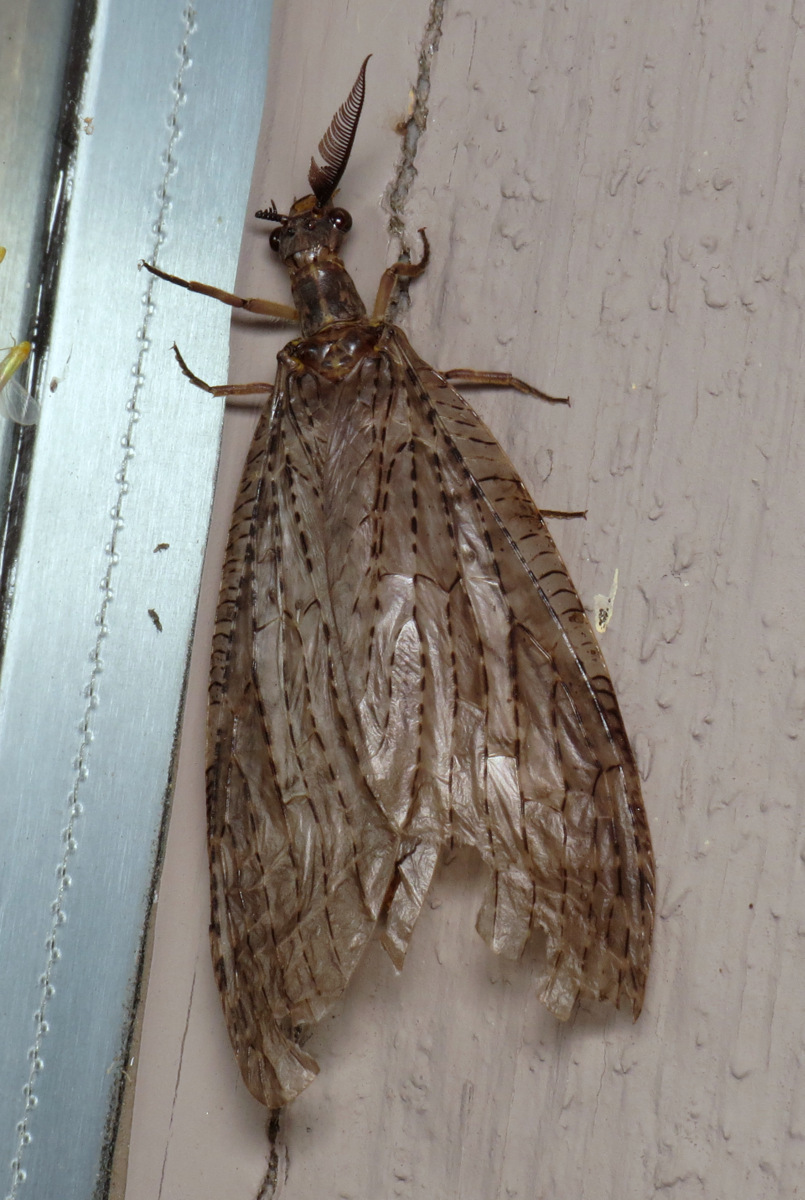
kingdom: Animalia
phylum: Arthropoda
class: Insecta
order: Megaloptera
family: Corydalidae
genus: Chauliodes
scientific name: Chauliodes pectinicornis
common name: Summer fishfly
